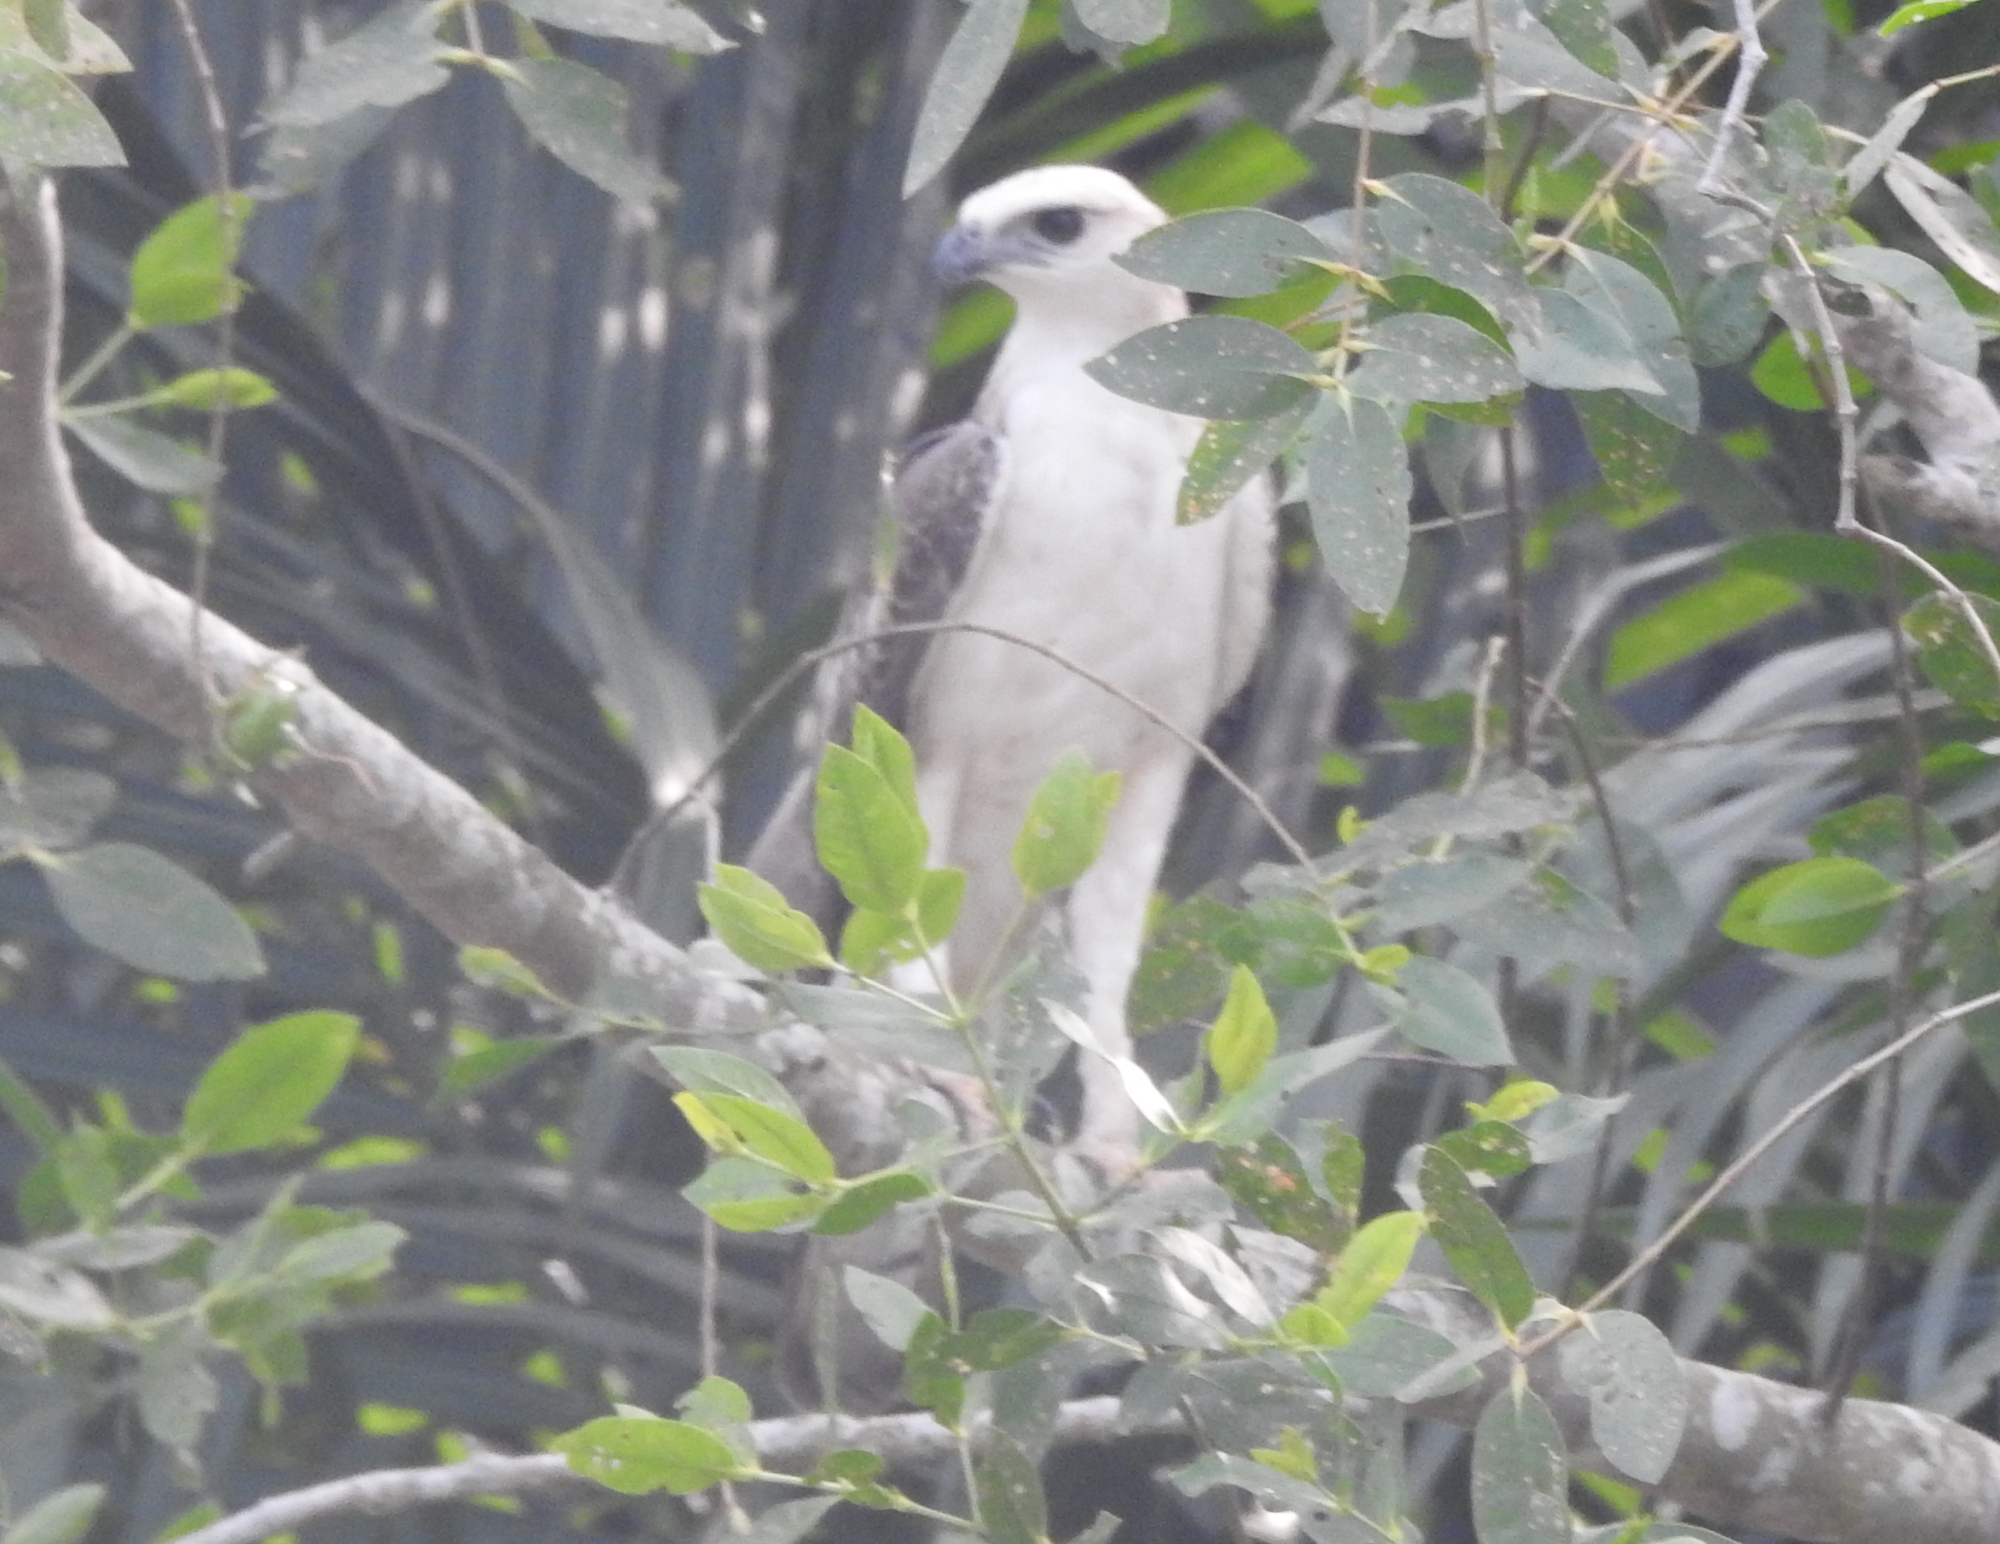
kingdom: Animalia
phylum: Chordata
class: Aves
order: Accipitriformes
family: Accipitridae
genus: Nisaetus
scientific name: Nisaetus cirrhatus
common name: Changeable hawk-eagle
